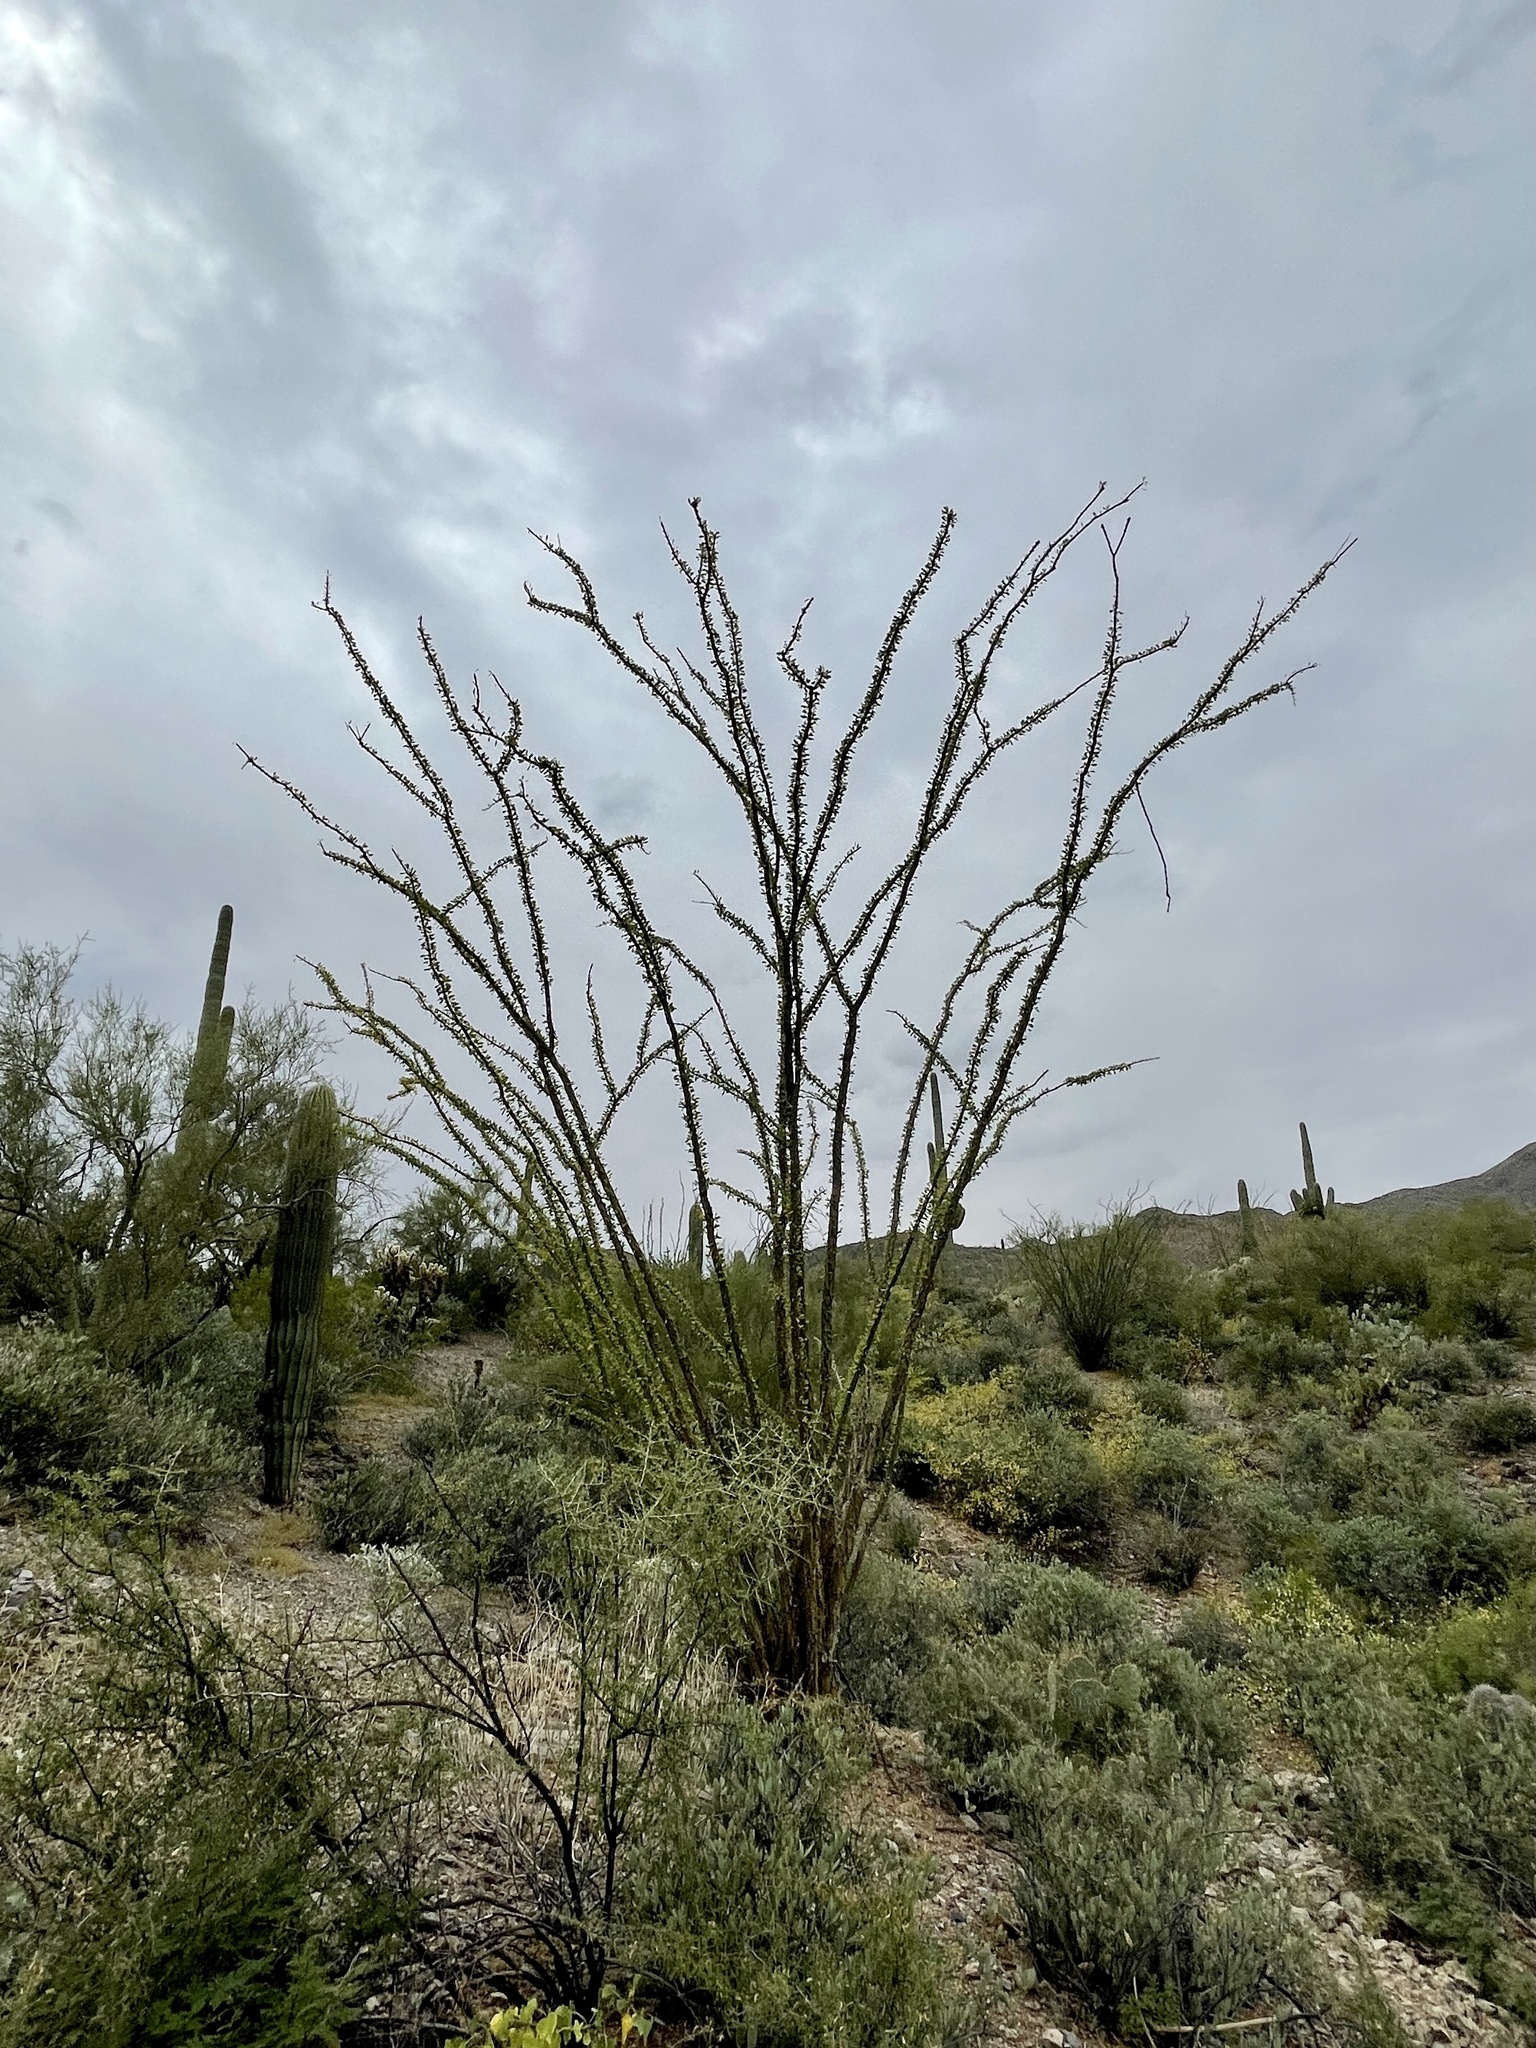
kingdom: Plantae
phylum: Tracheophyta
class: Magnoliopsida
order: Ericales
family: Fouquieriaceae
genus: Fouquieria
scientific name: Fouquieria splendens
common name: Vine-cactus
